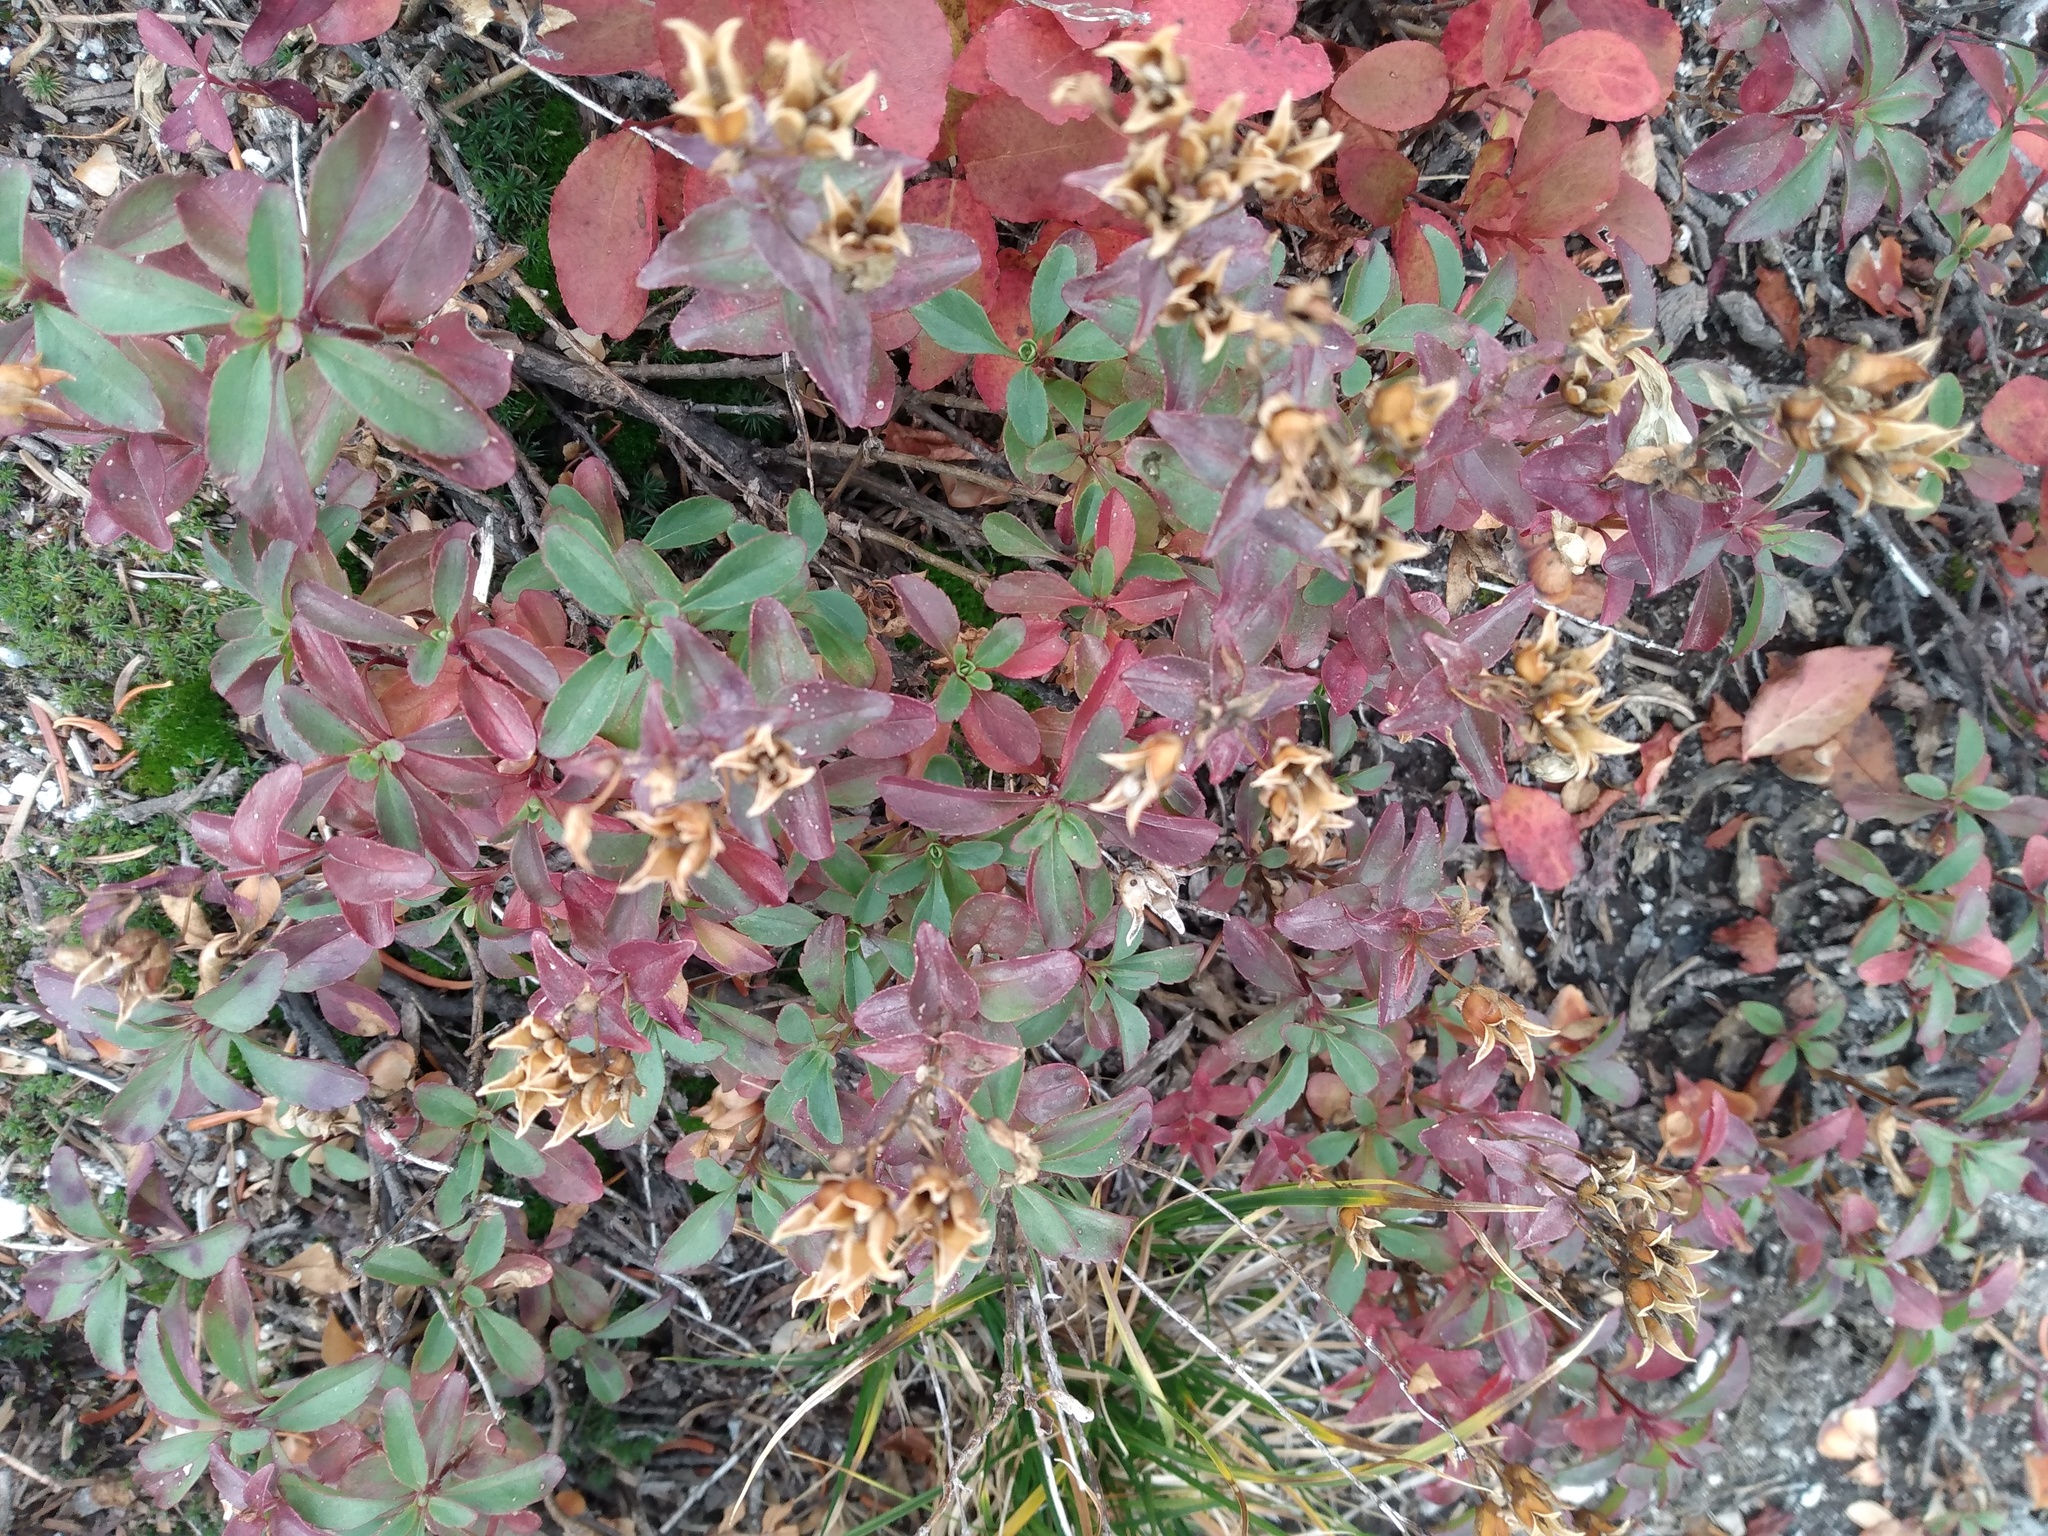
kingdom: Plantae
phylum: Tracheophyta
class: Magnoliopsida
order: Lamiales
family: Plantaginaceae
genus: Penstemon
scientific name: Penstemon ellipticus
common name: Alpine beardtongue
